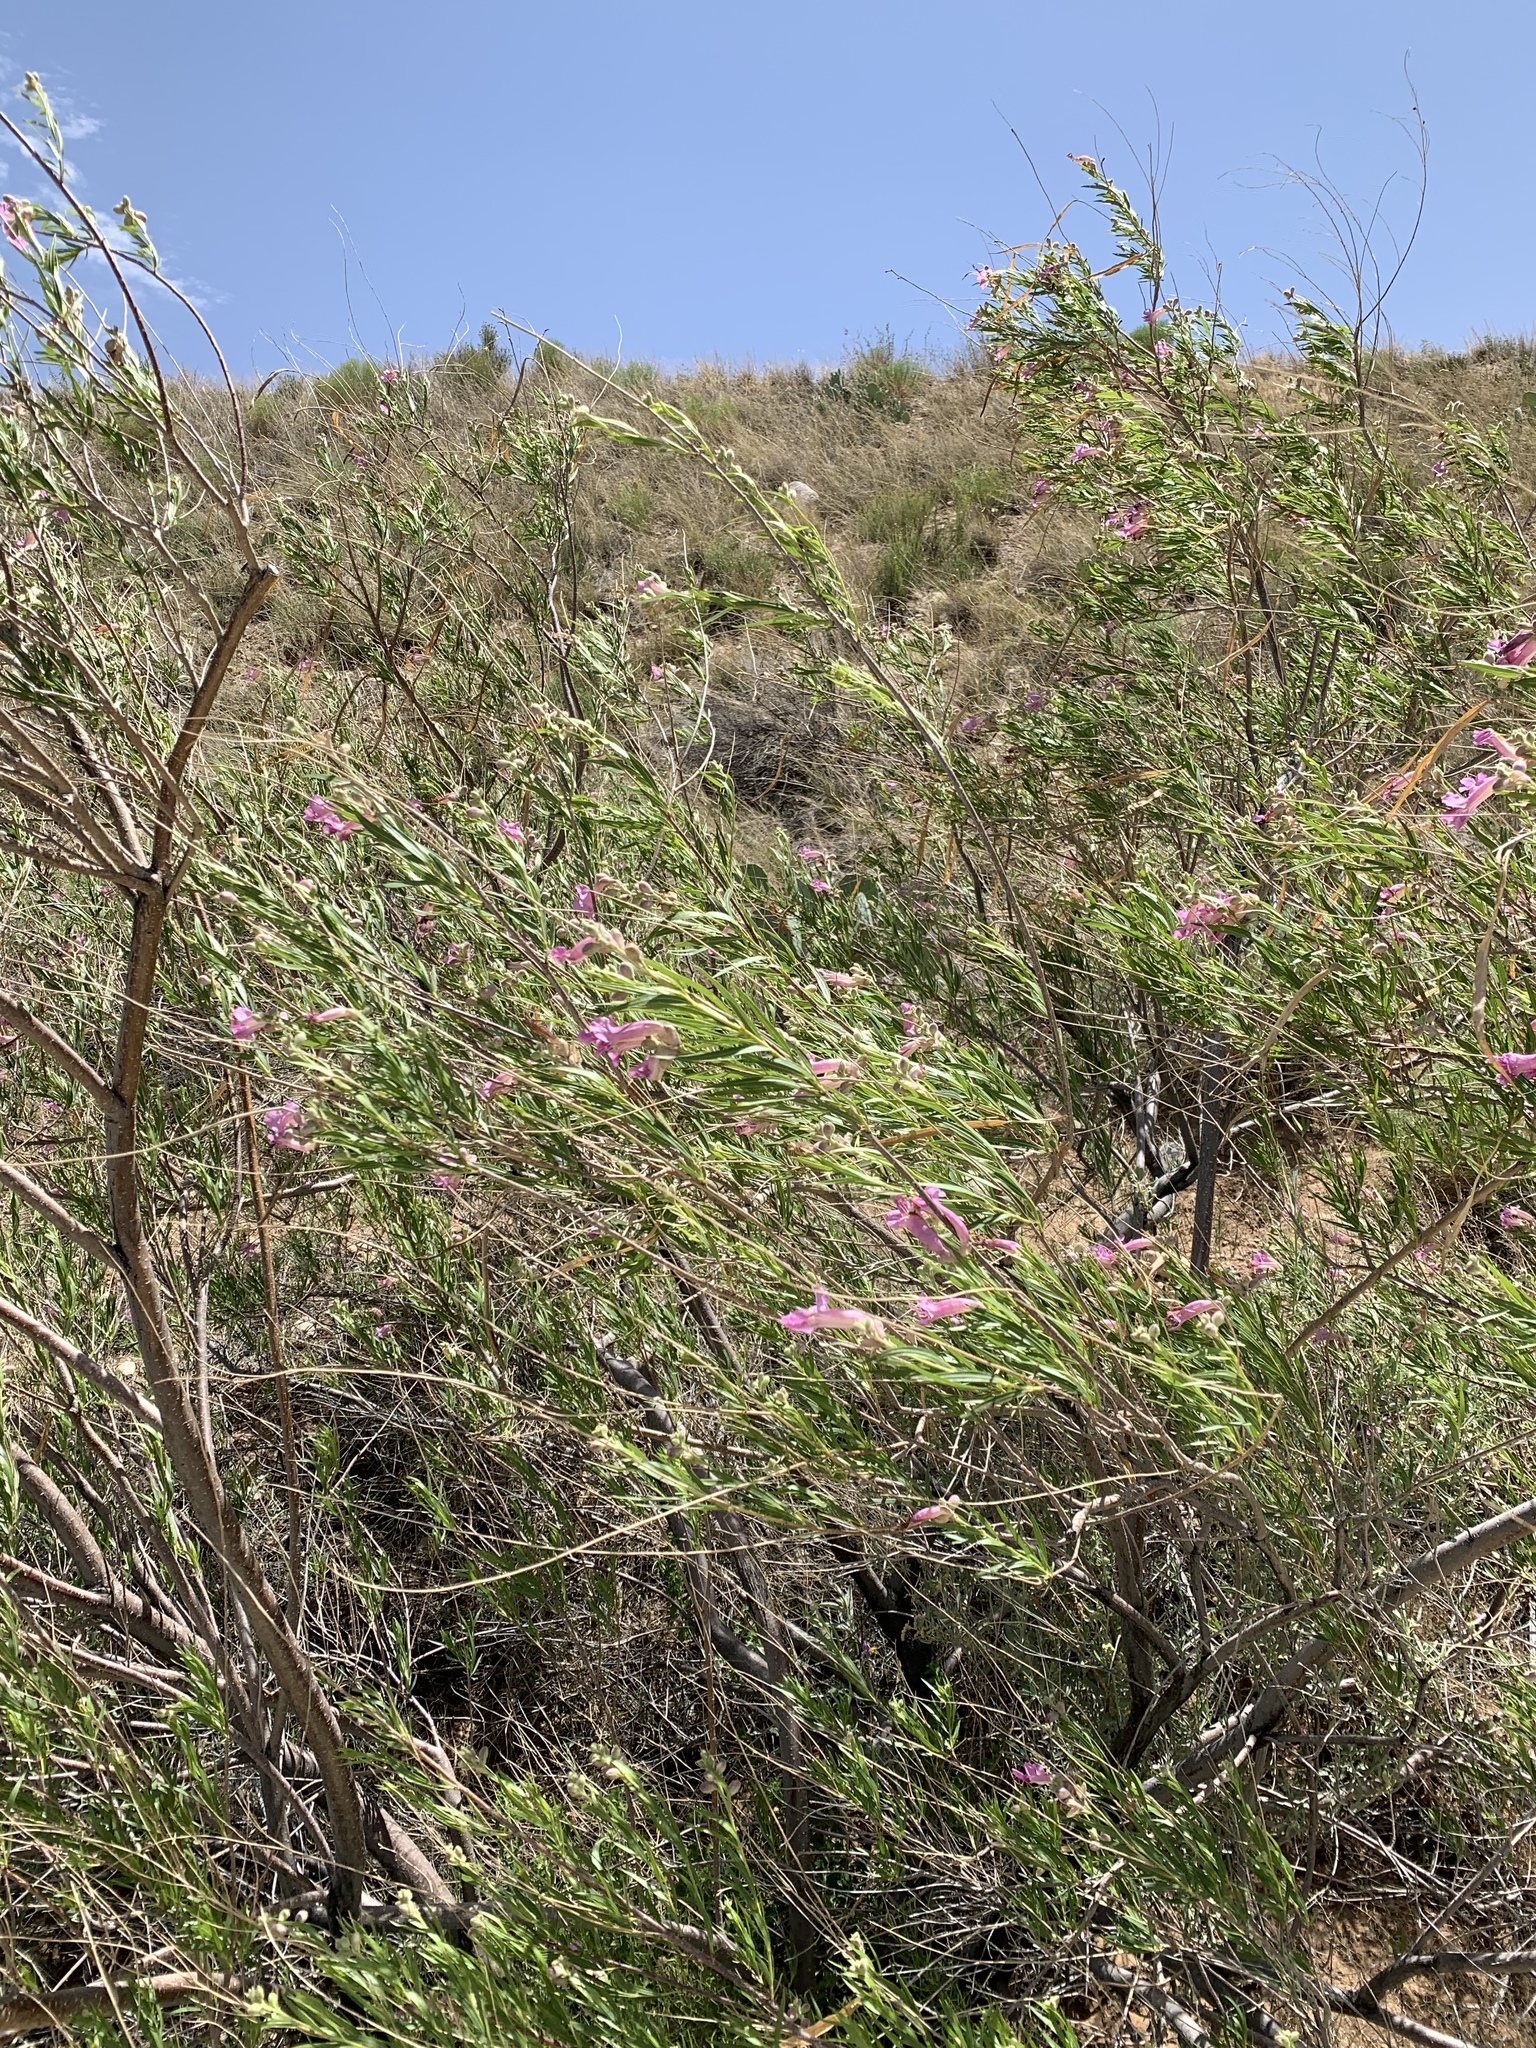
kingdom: Plantae
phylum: Tracheophyta
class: Magnoliopsida
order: Lamiales
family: Bignoniaceae
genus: Chilopsis
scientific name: Chilopsis linearis
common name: Desert-willow
